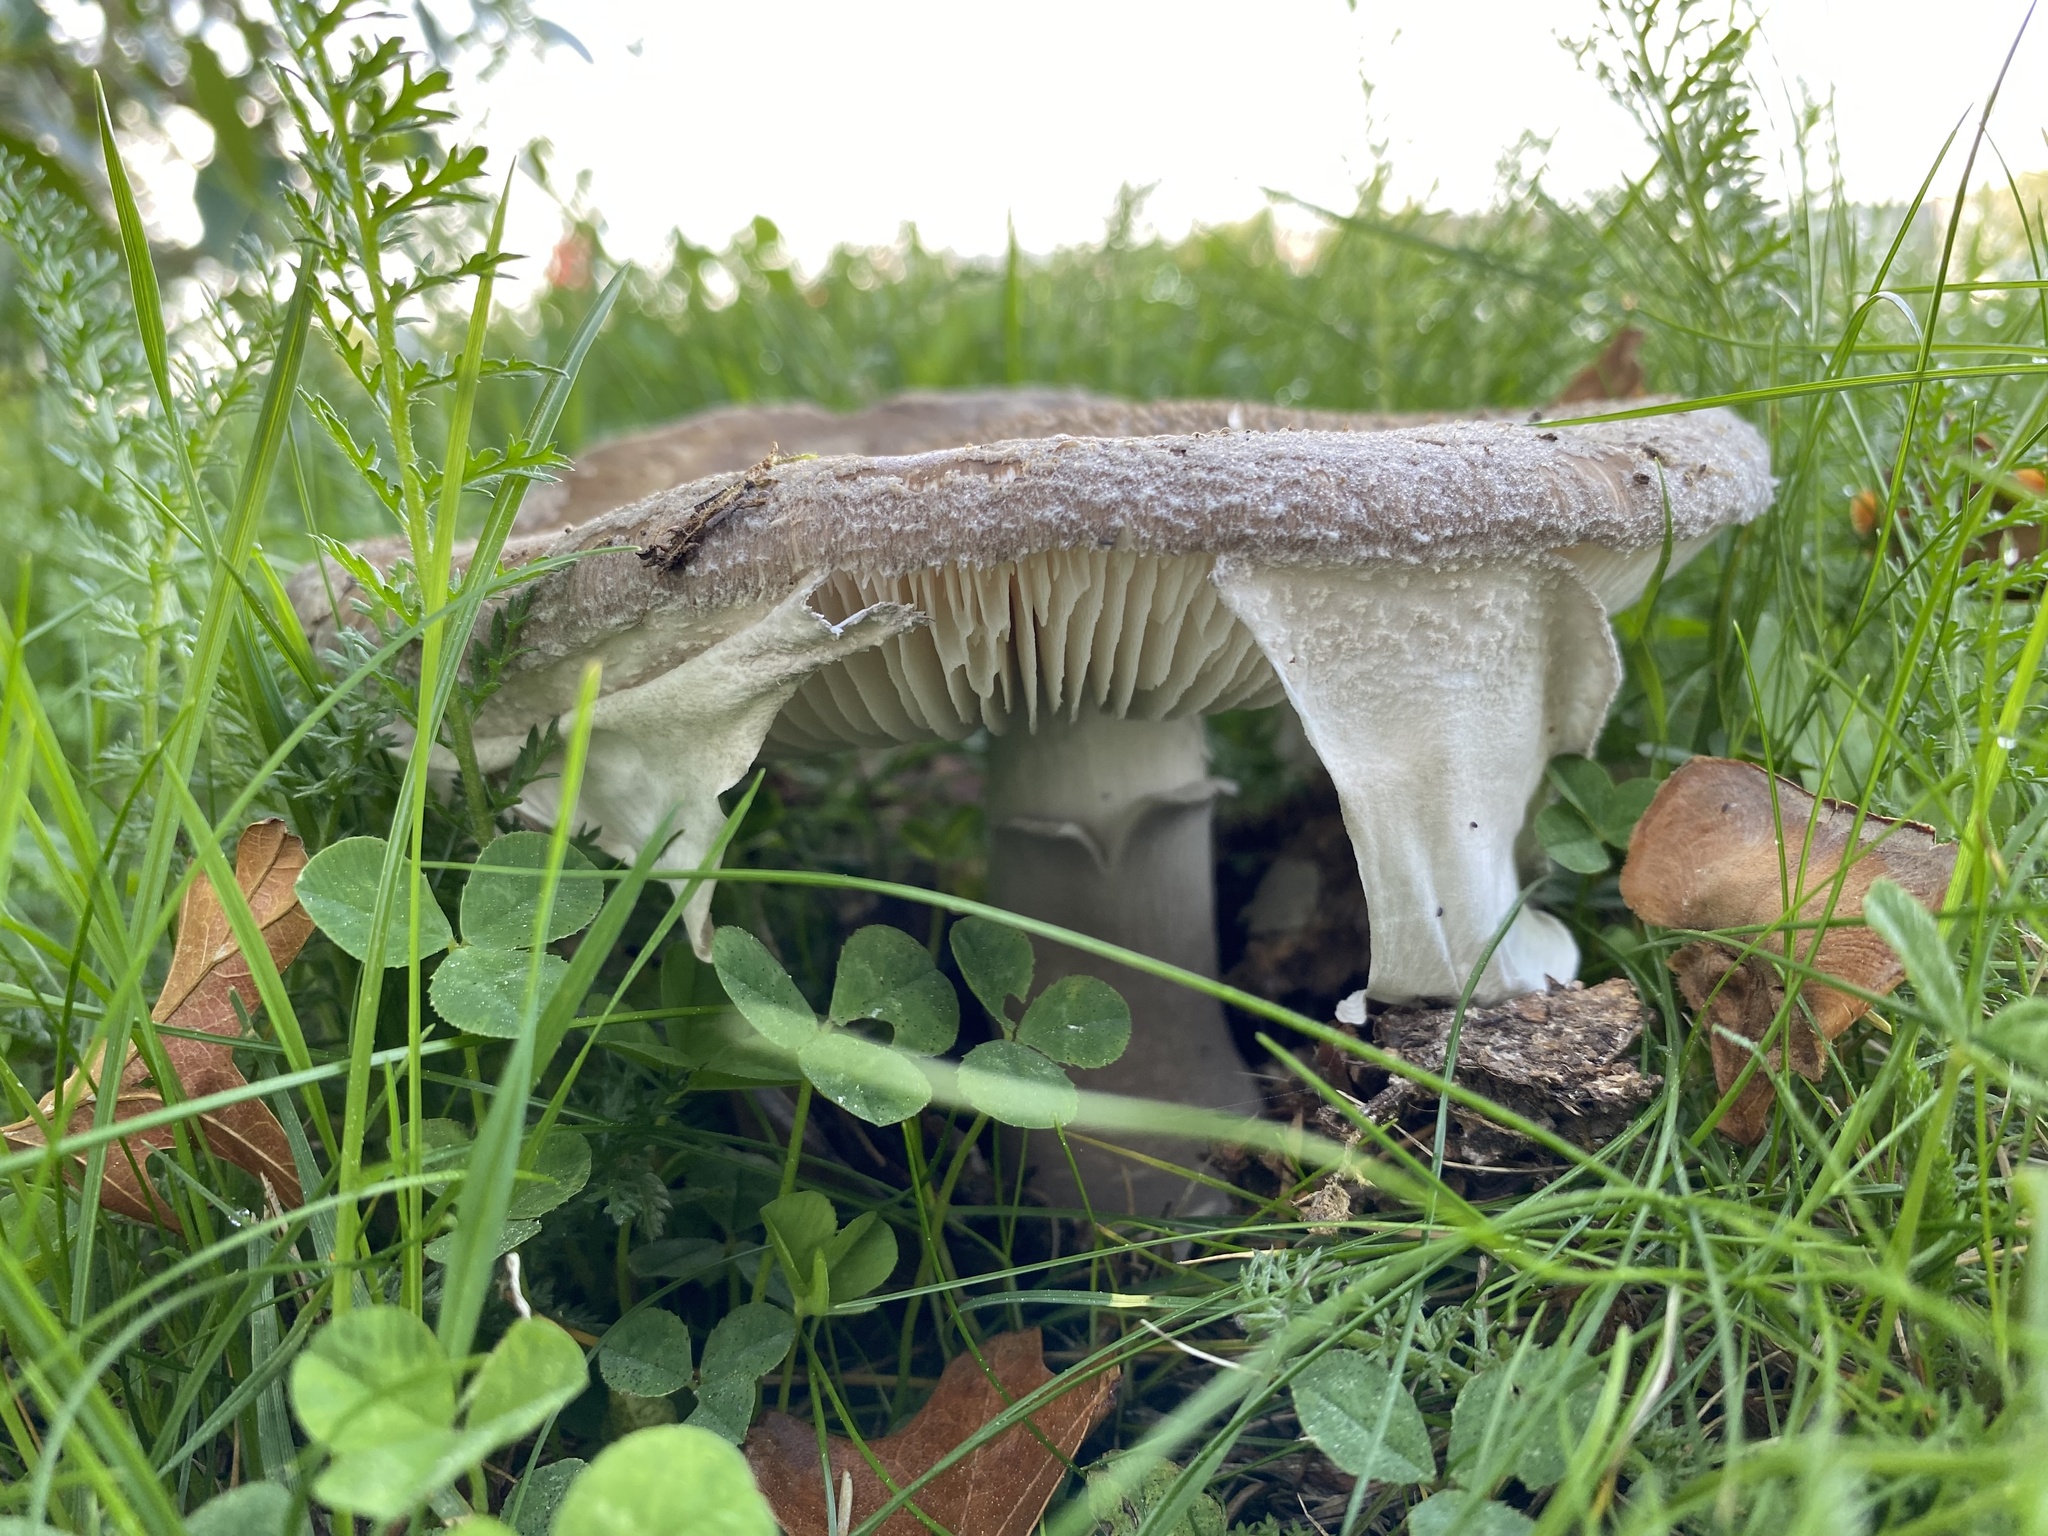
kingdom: Fungi
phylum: Basidiomycota
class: Agaricomycetes
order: Agaricales
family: Amanitaceae
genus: Amanita
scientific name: Amanita excelsa
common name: European false blusher
